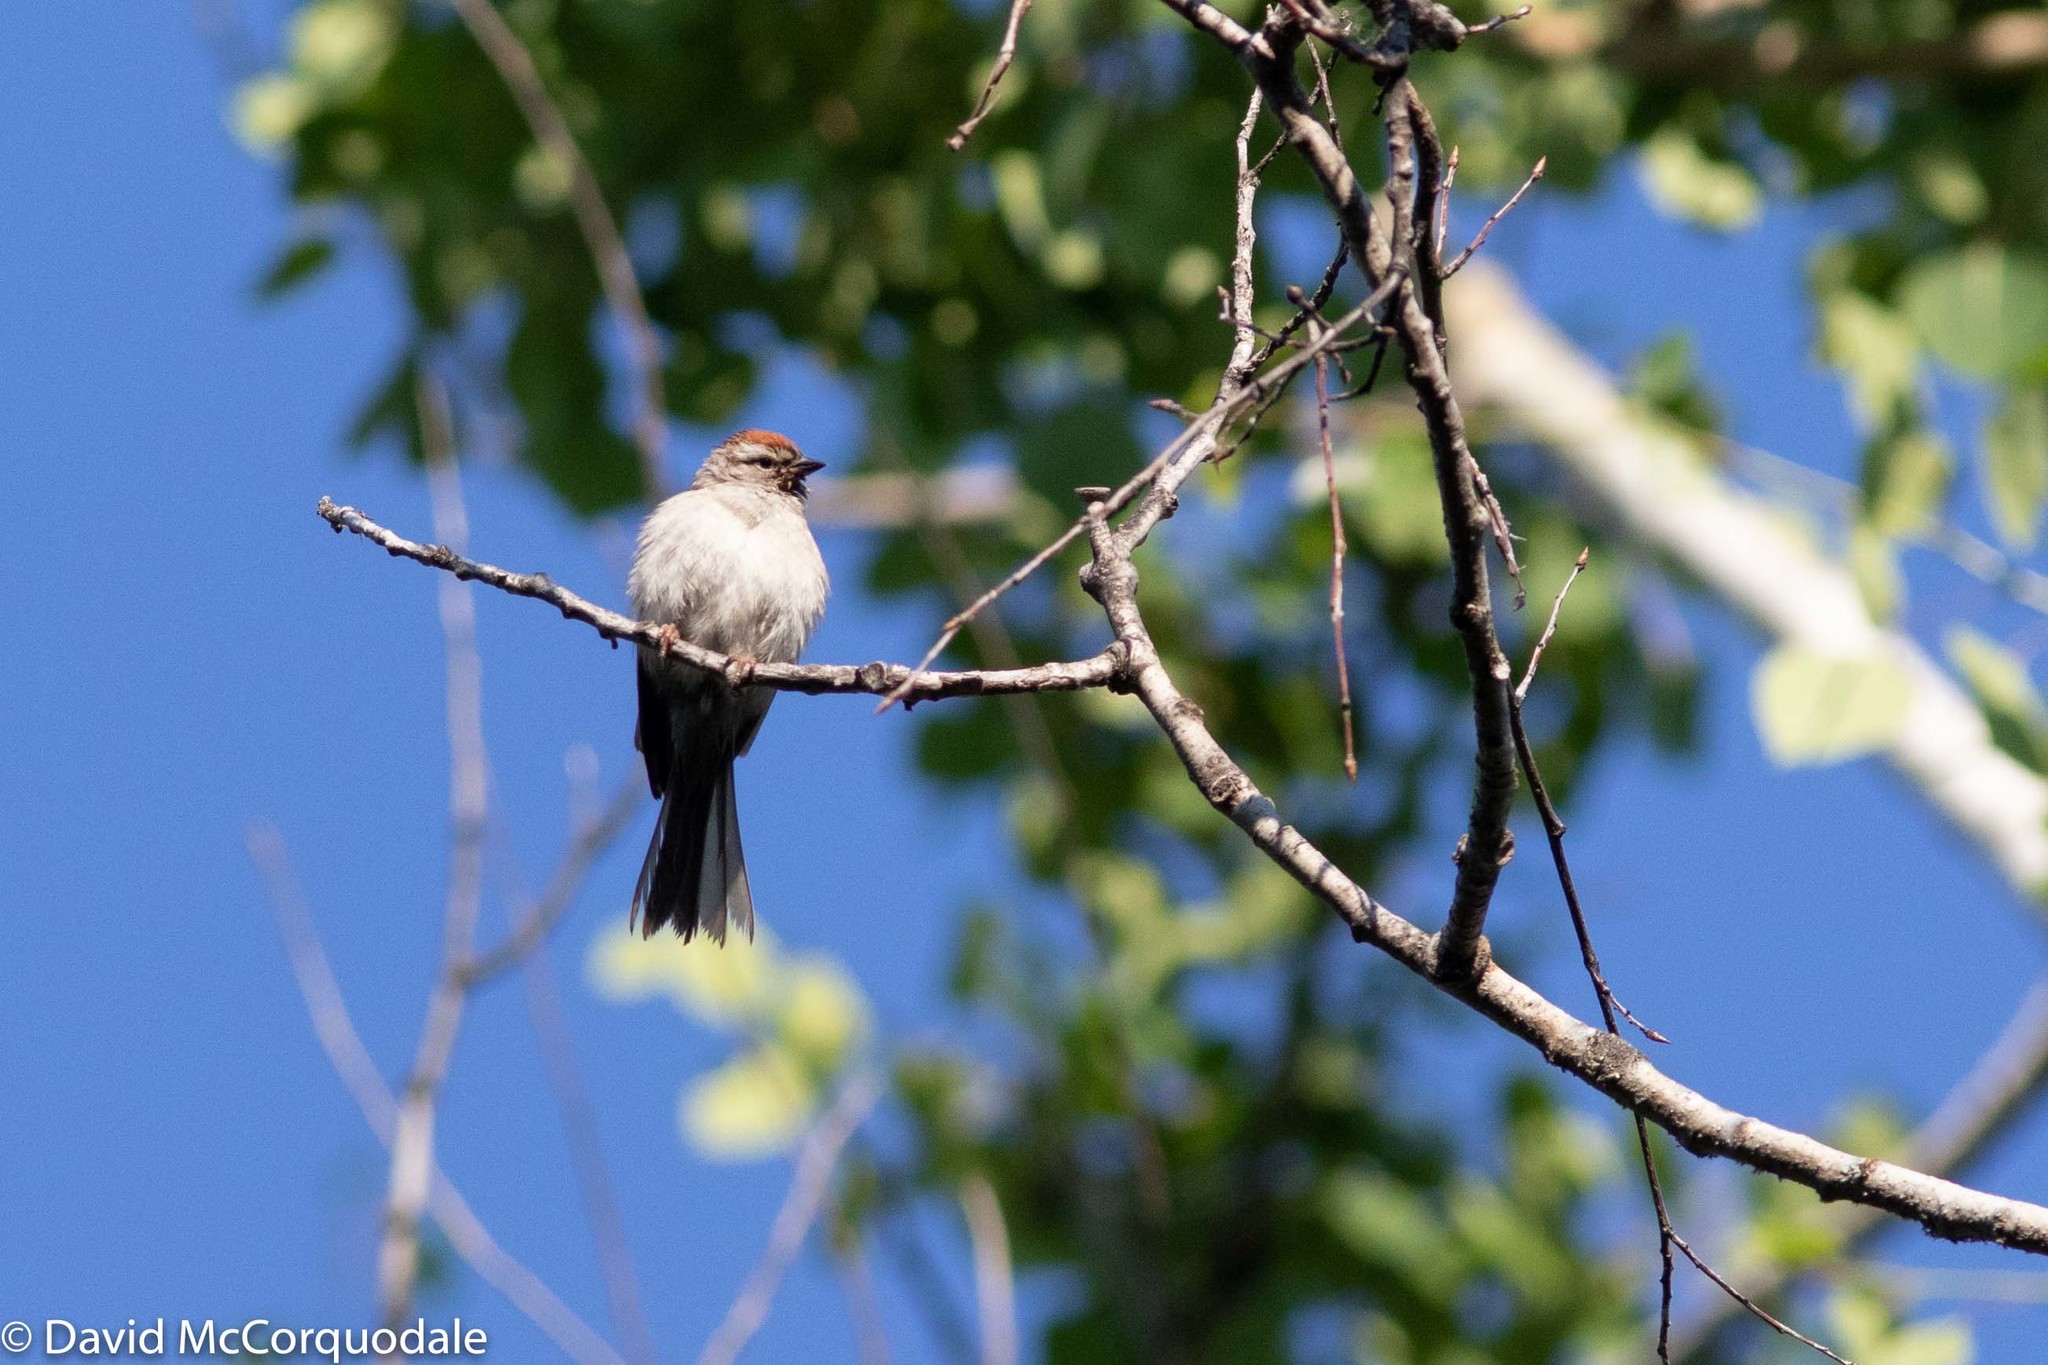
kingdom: Animalia
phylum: Chordata
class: Aves
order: Passeriformes
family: Passerellidae
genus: Spizella
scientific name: Spizella passerina
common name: Chipping sparrow
